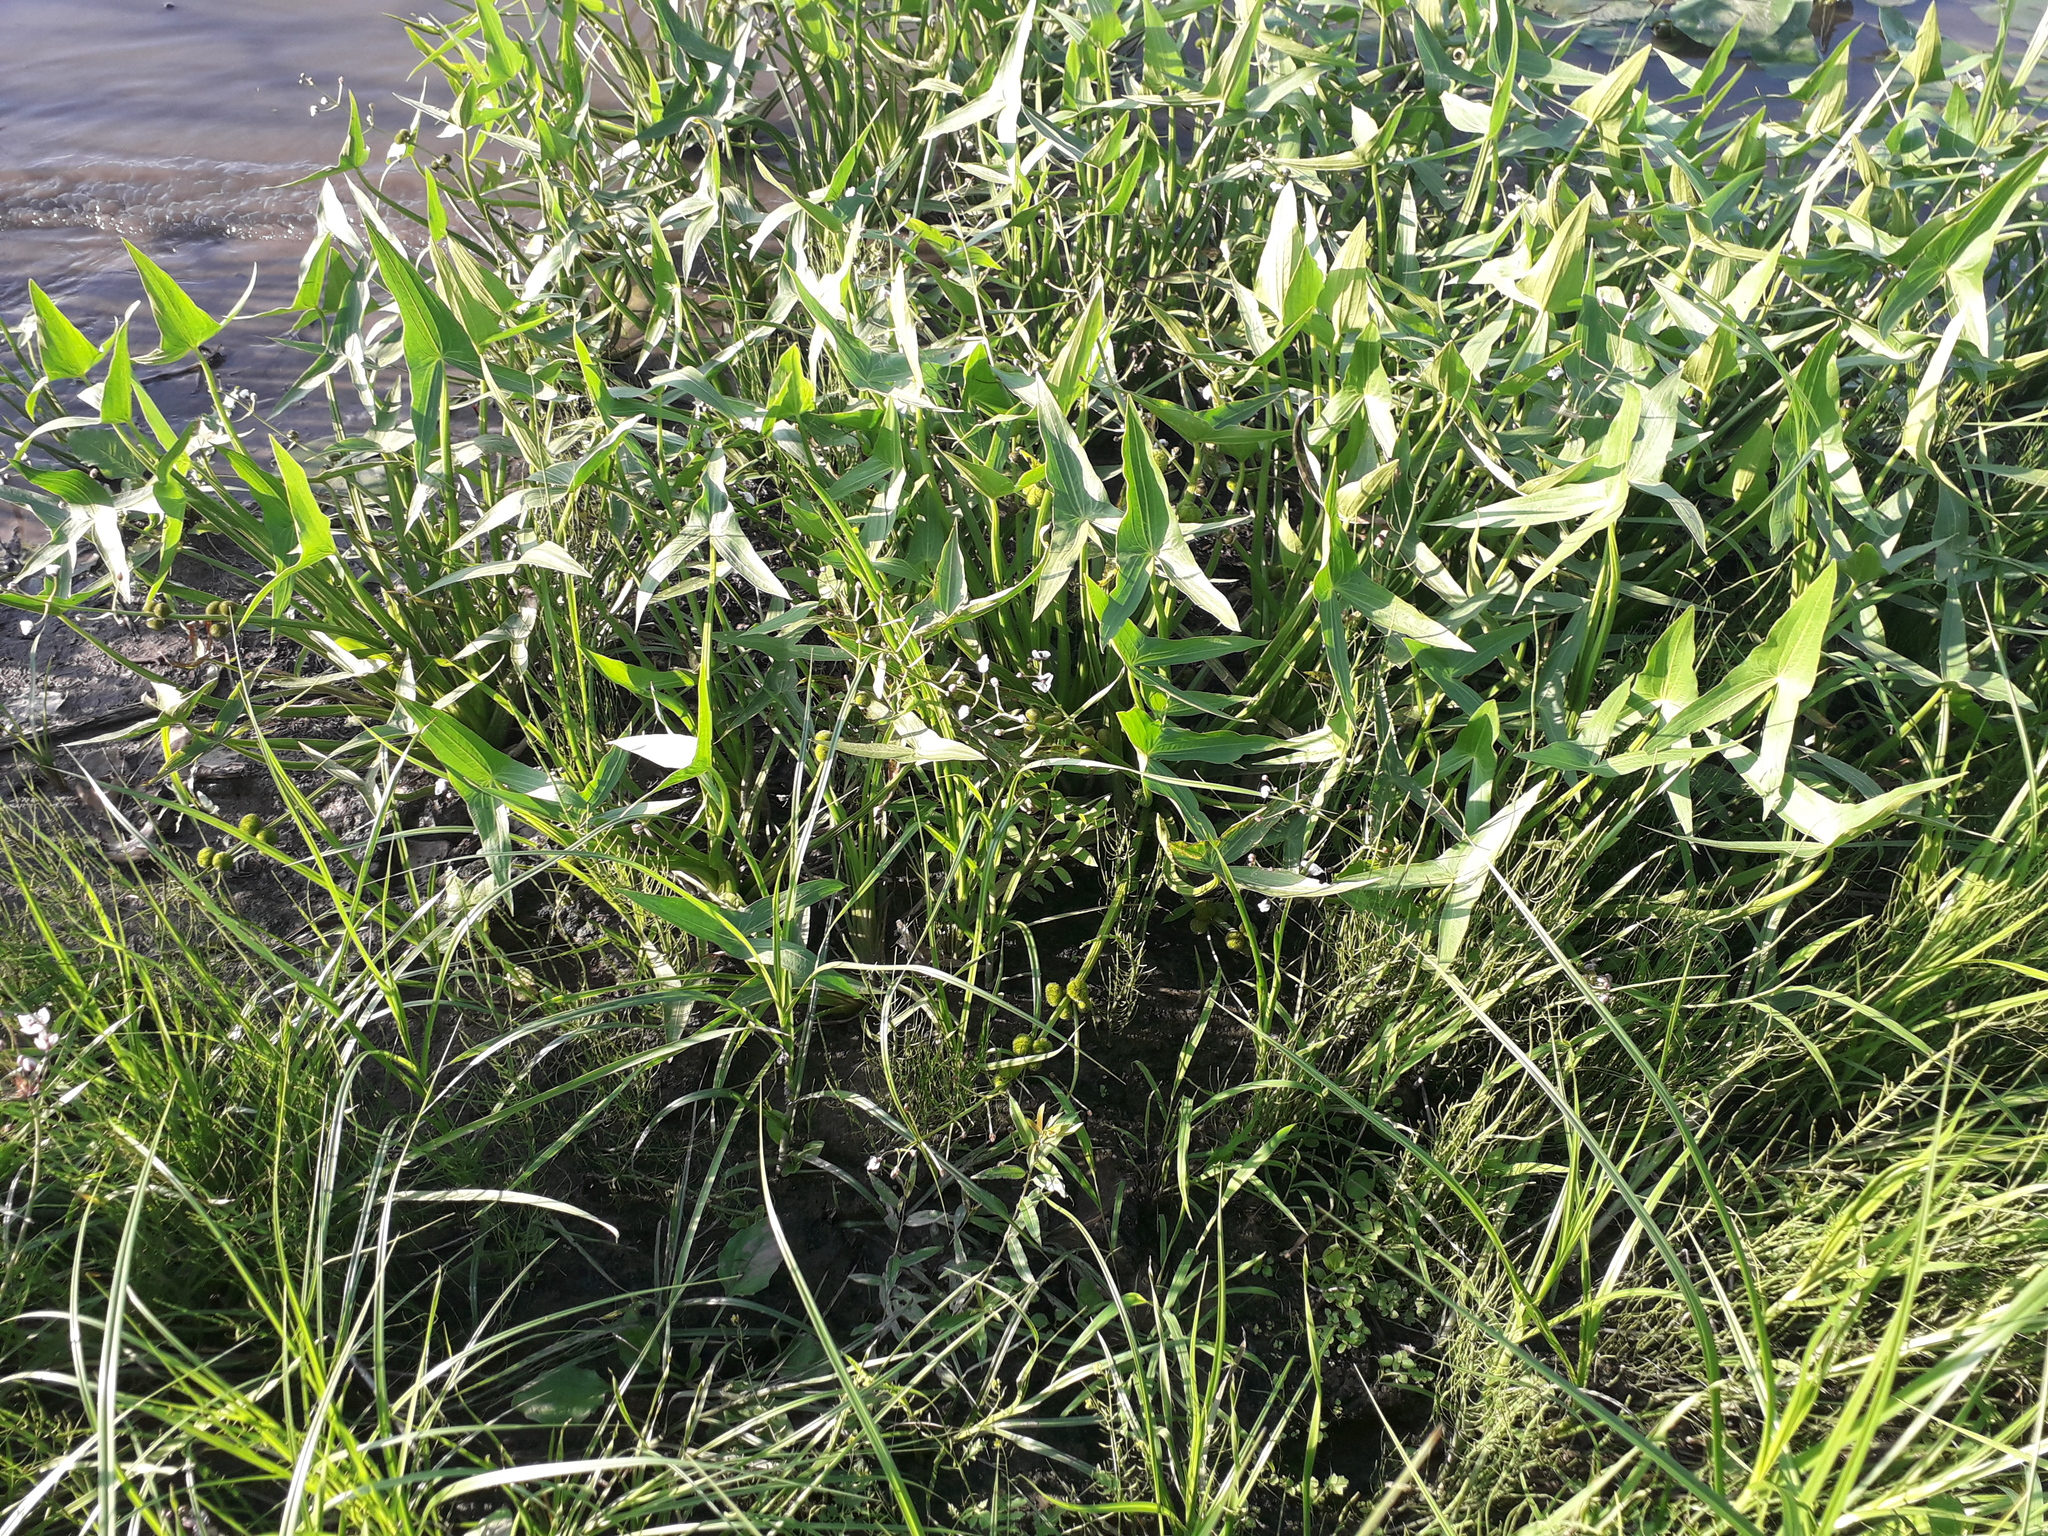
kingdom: Plantae
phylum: Tracheophyta
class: Liliopsida
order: Alismatales
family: Alismataceae
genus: Sagittaria
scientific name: Sagittaria sagittifolia
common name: Arrowhead
